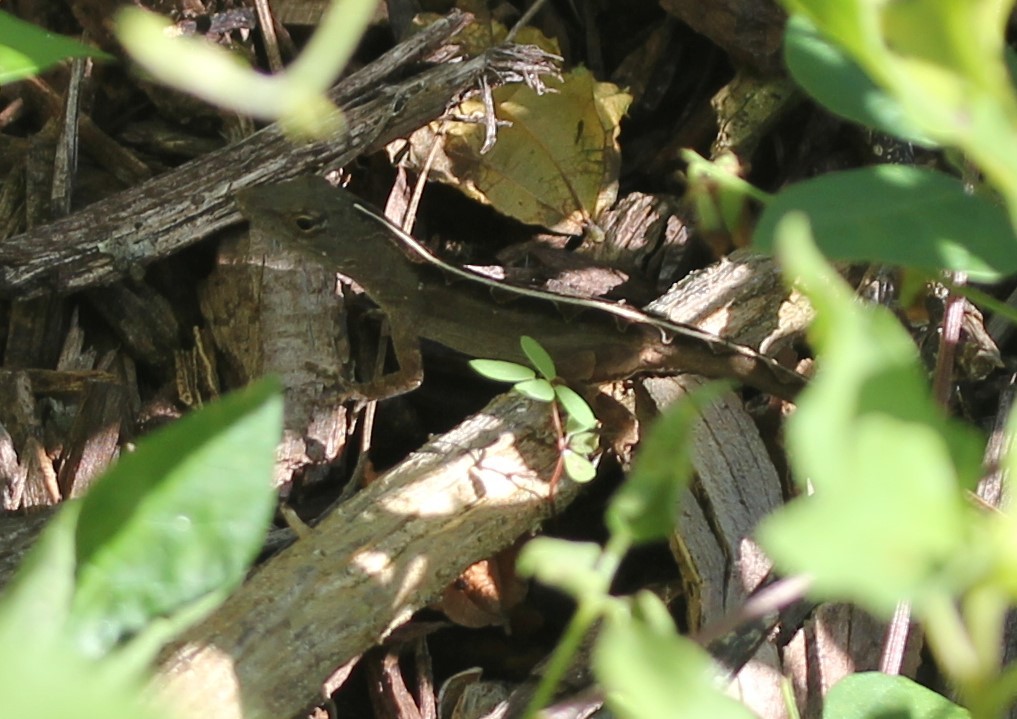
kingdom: Animalia
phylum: Chordata
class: Squamata
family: Dactyloidae
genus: Anolis
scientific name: Anolis sagrei
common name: Brown anole
